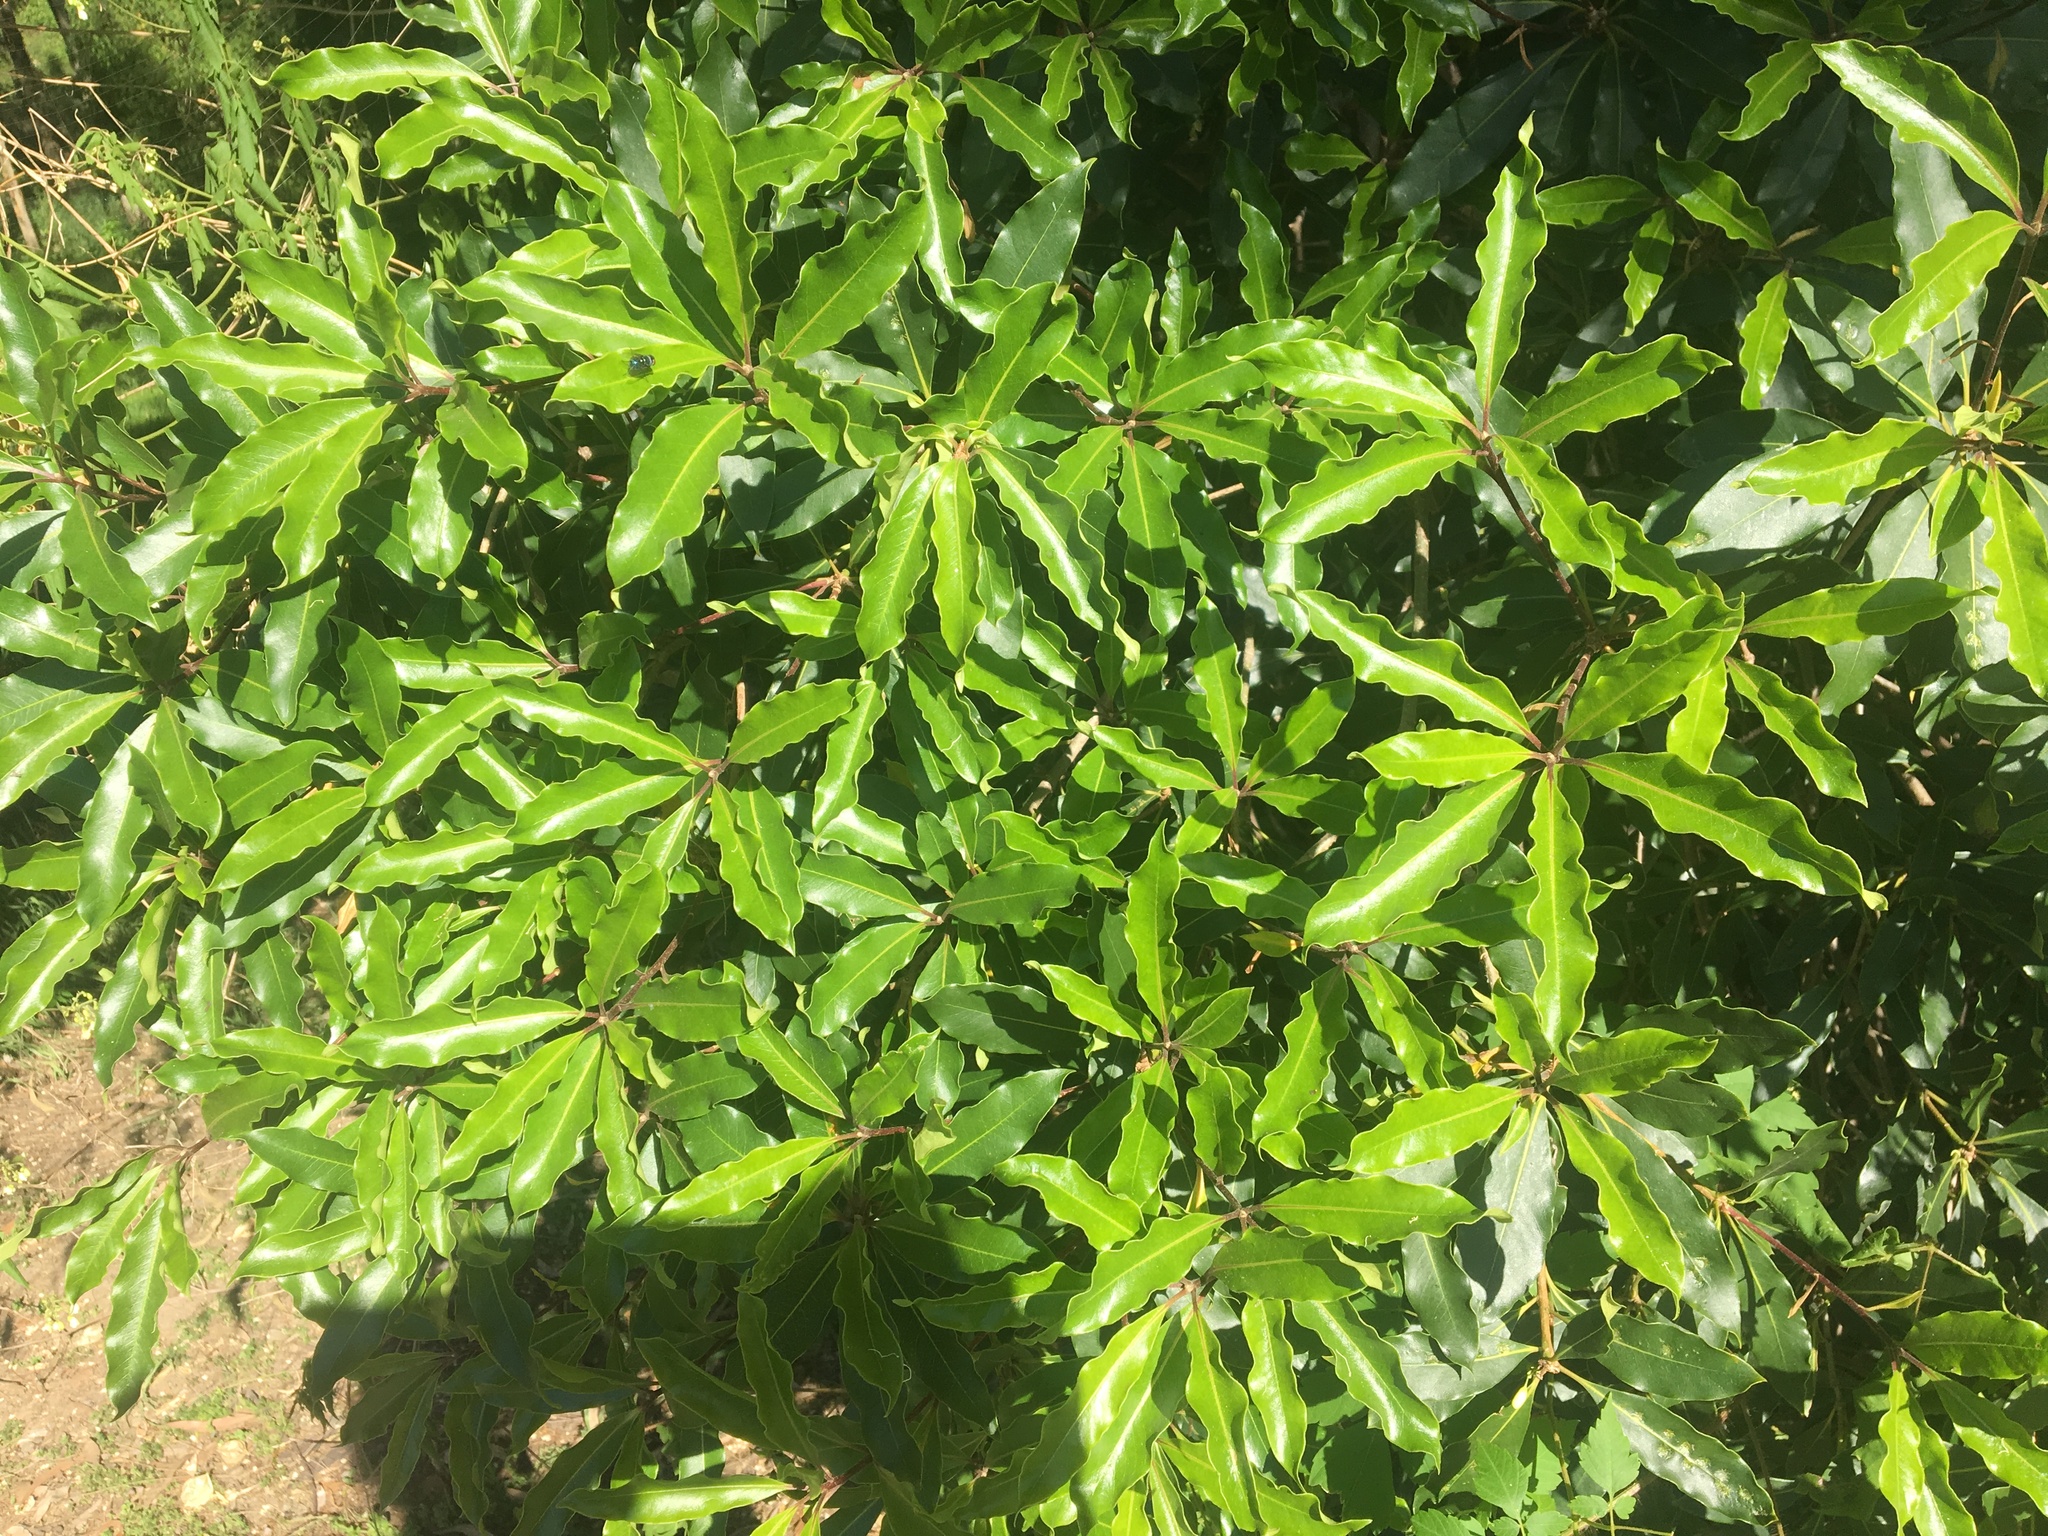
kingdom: Plantae
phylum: Tracheophyta
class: Magnoliopsida
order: Apiales
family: Pittosporaceae
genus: Pittosporum
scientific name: Pittosporum undulatum
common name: Australian cheesewood
